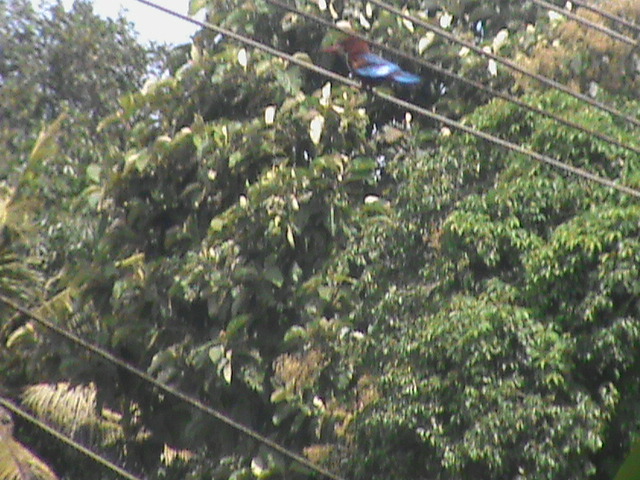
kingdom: Animalia
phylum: Chordata
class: Aves
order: Coraciiformes
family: Alcedinidae
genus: Halcyon
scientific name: Halcyon smyrnensis
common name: White-throated kingfisher
